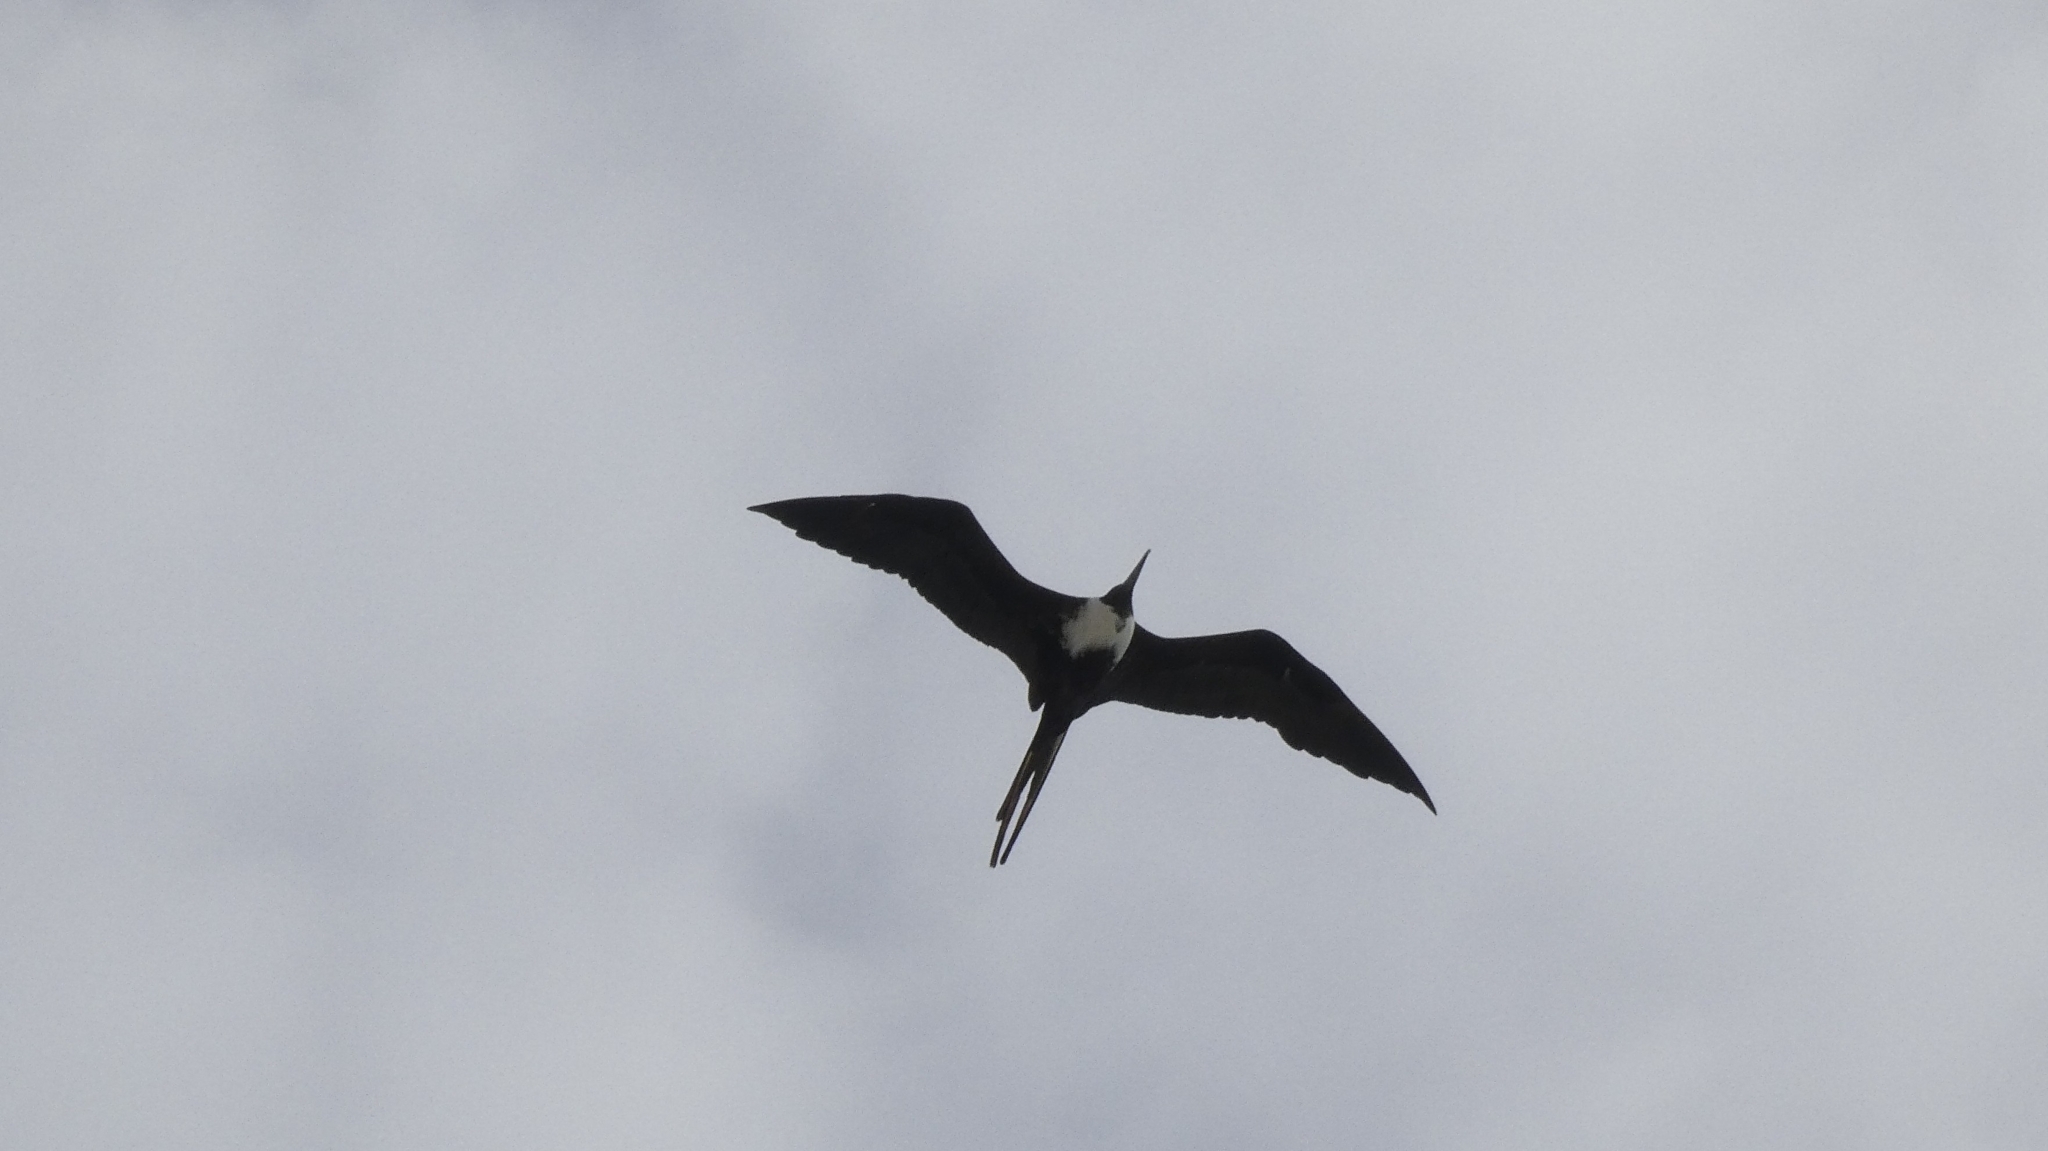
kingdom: Animalia
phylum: Chordata
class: Aves
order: Suliformes
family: Fregatidae
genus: Fregata
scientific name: Fregata magnificens
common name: Magnificent frigatebird
